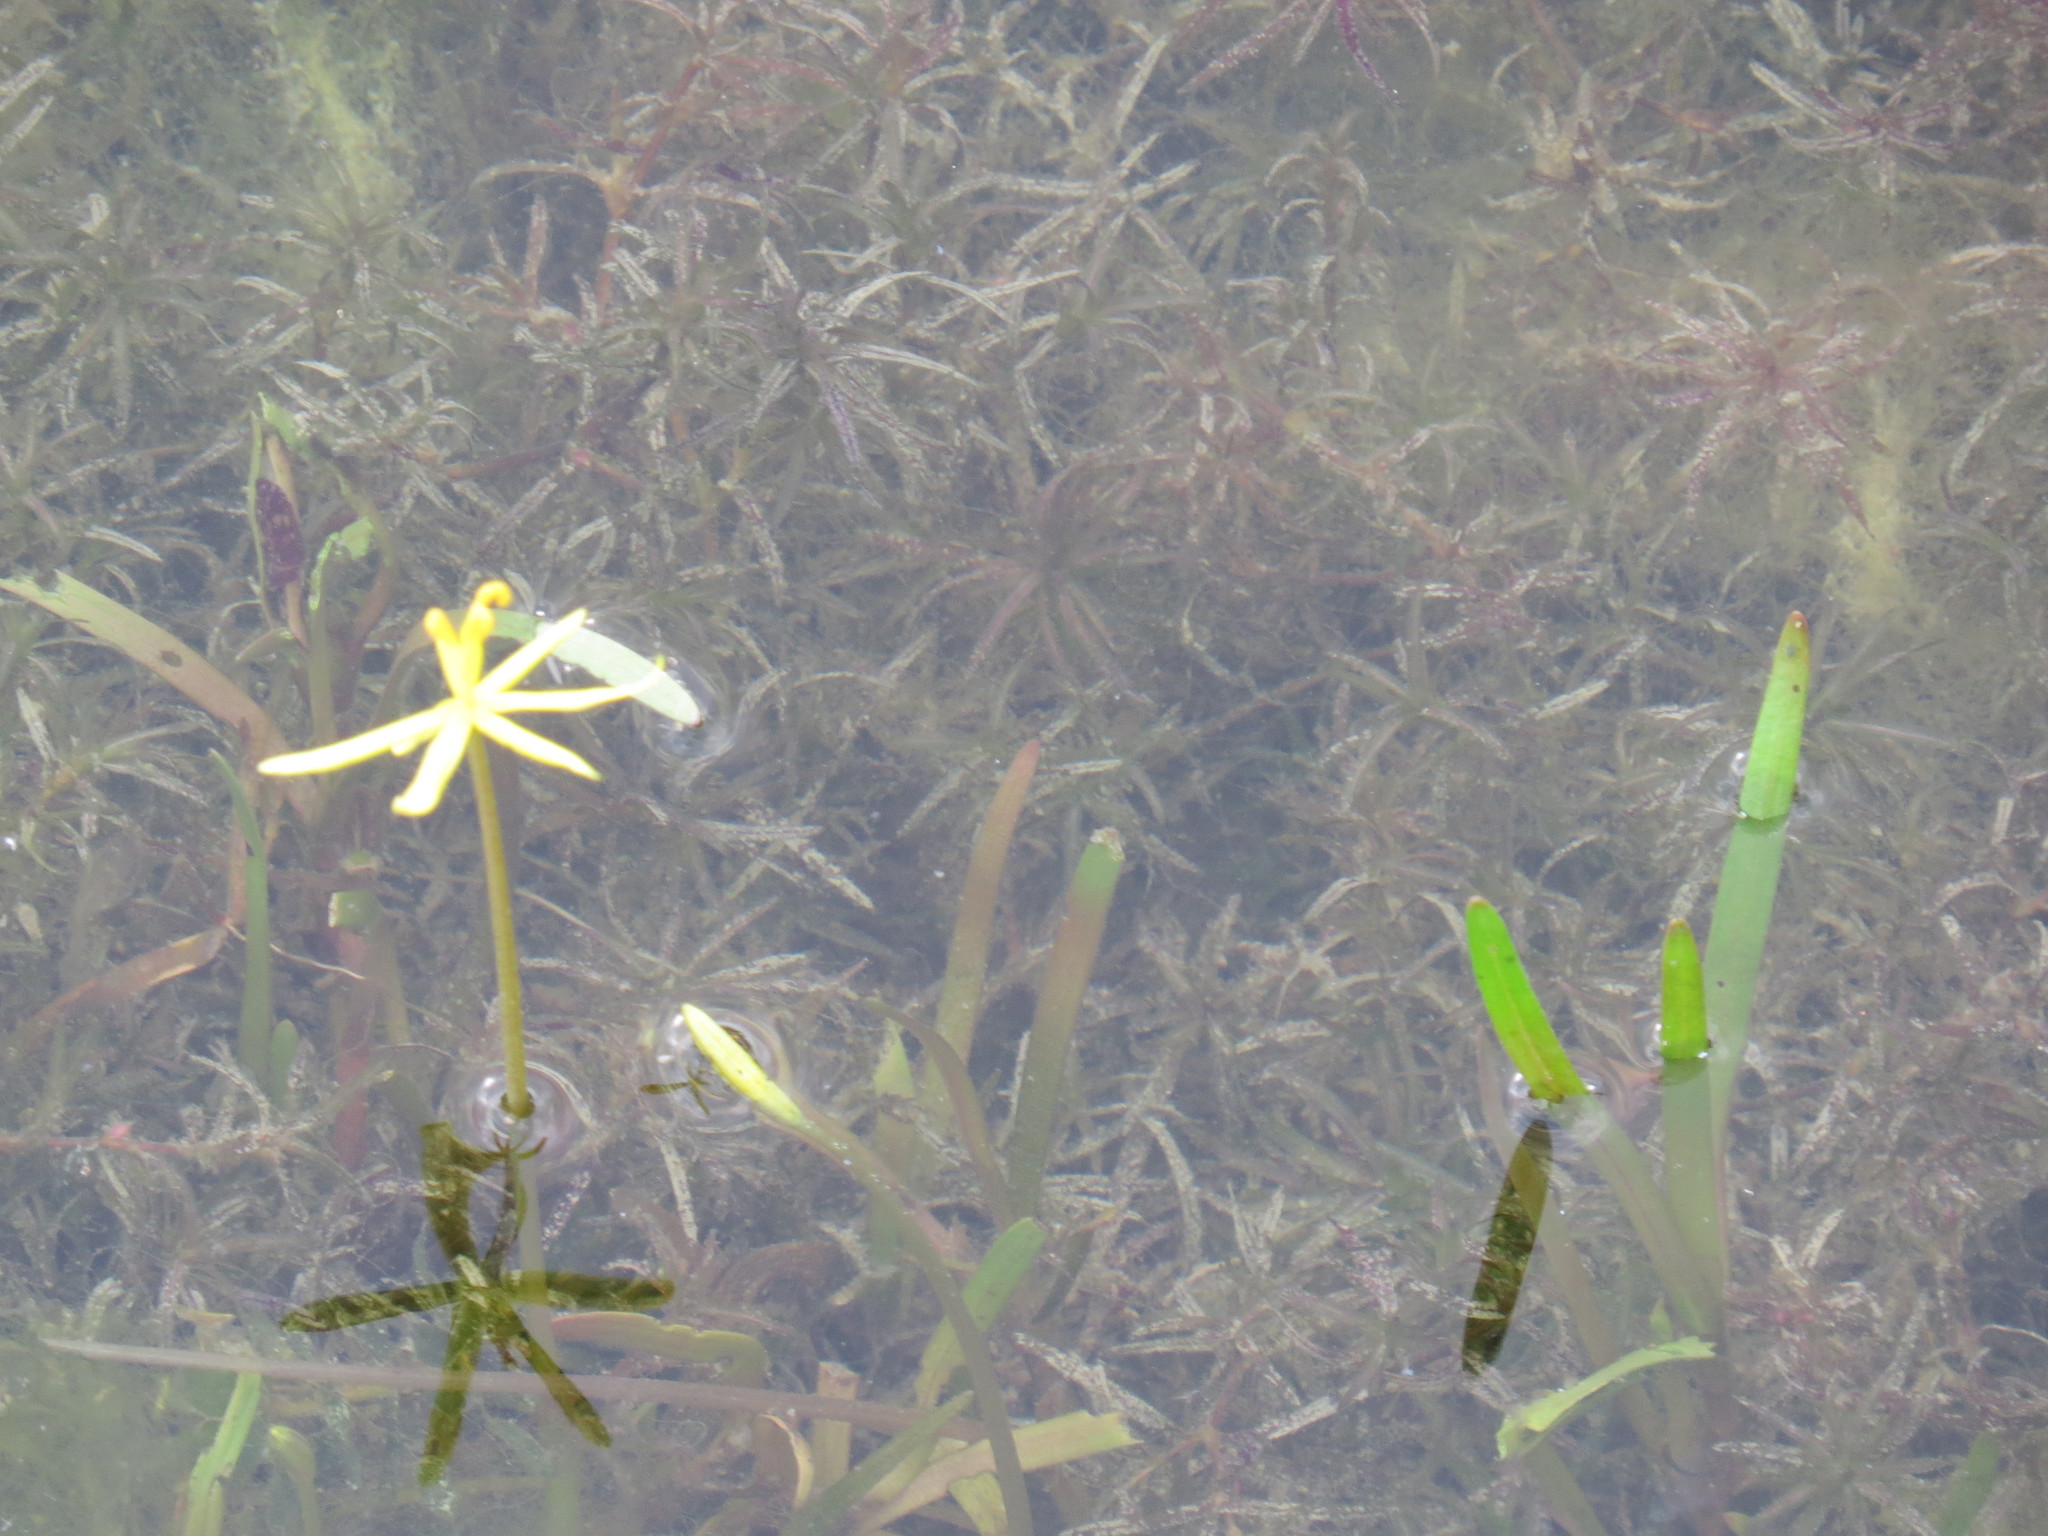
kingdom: Plantae
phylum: Tracheophyta
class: Liliopsida
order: Commelinales
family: Pontederiaceae
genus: Heteranthera
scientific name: Heteranthera dubia
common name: Grass-leaved mud plantain
